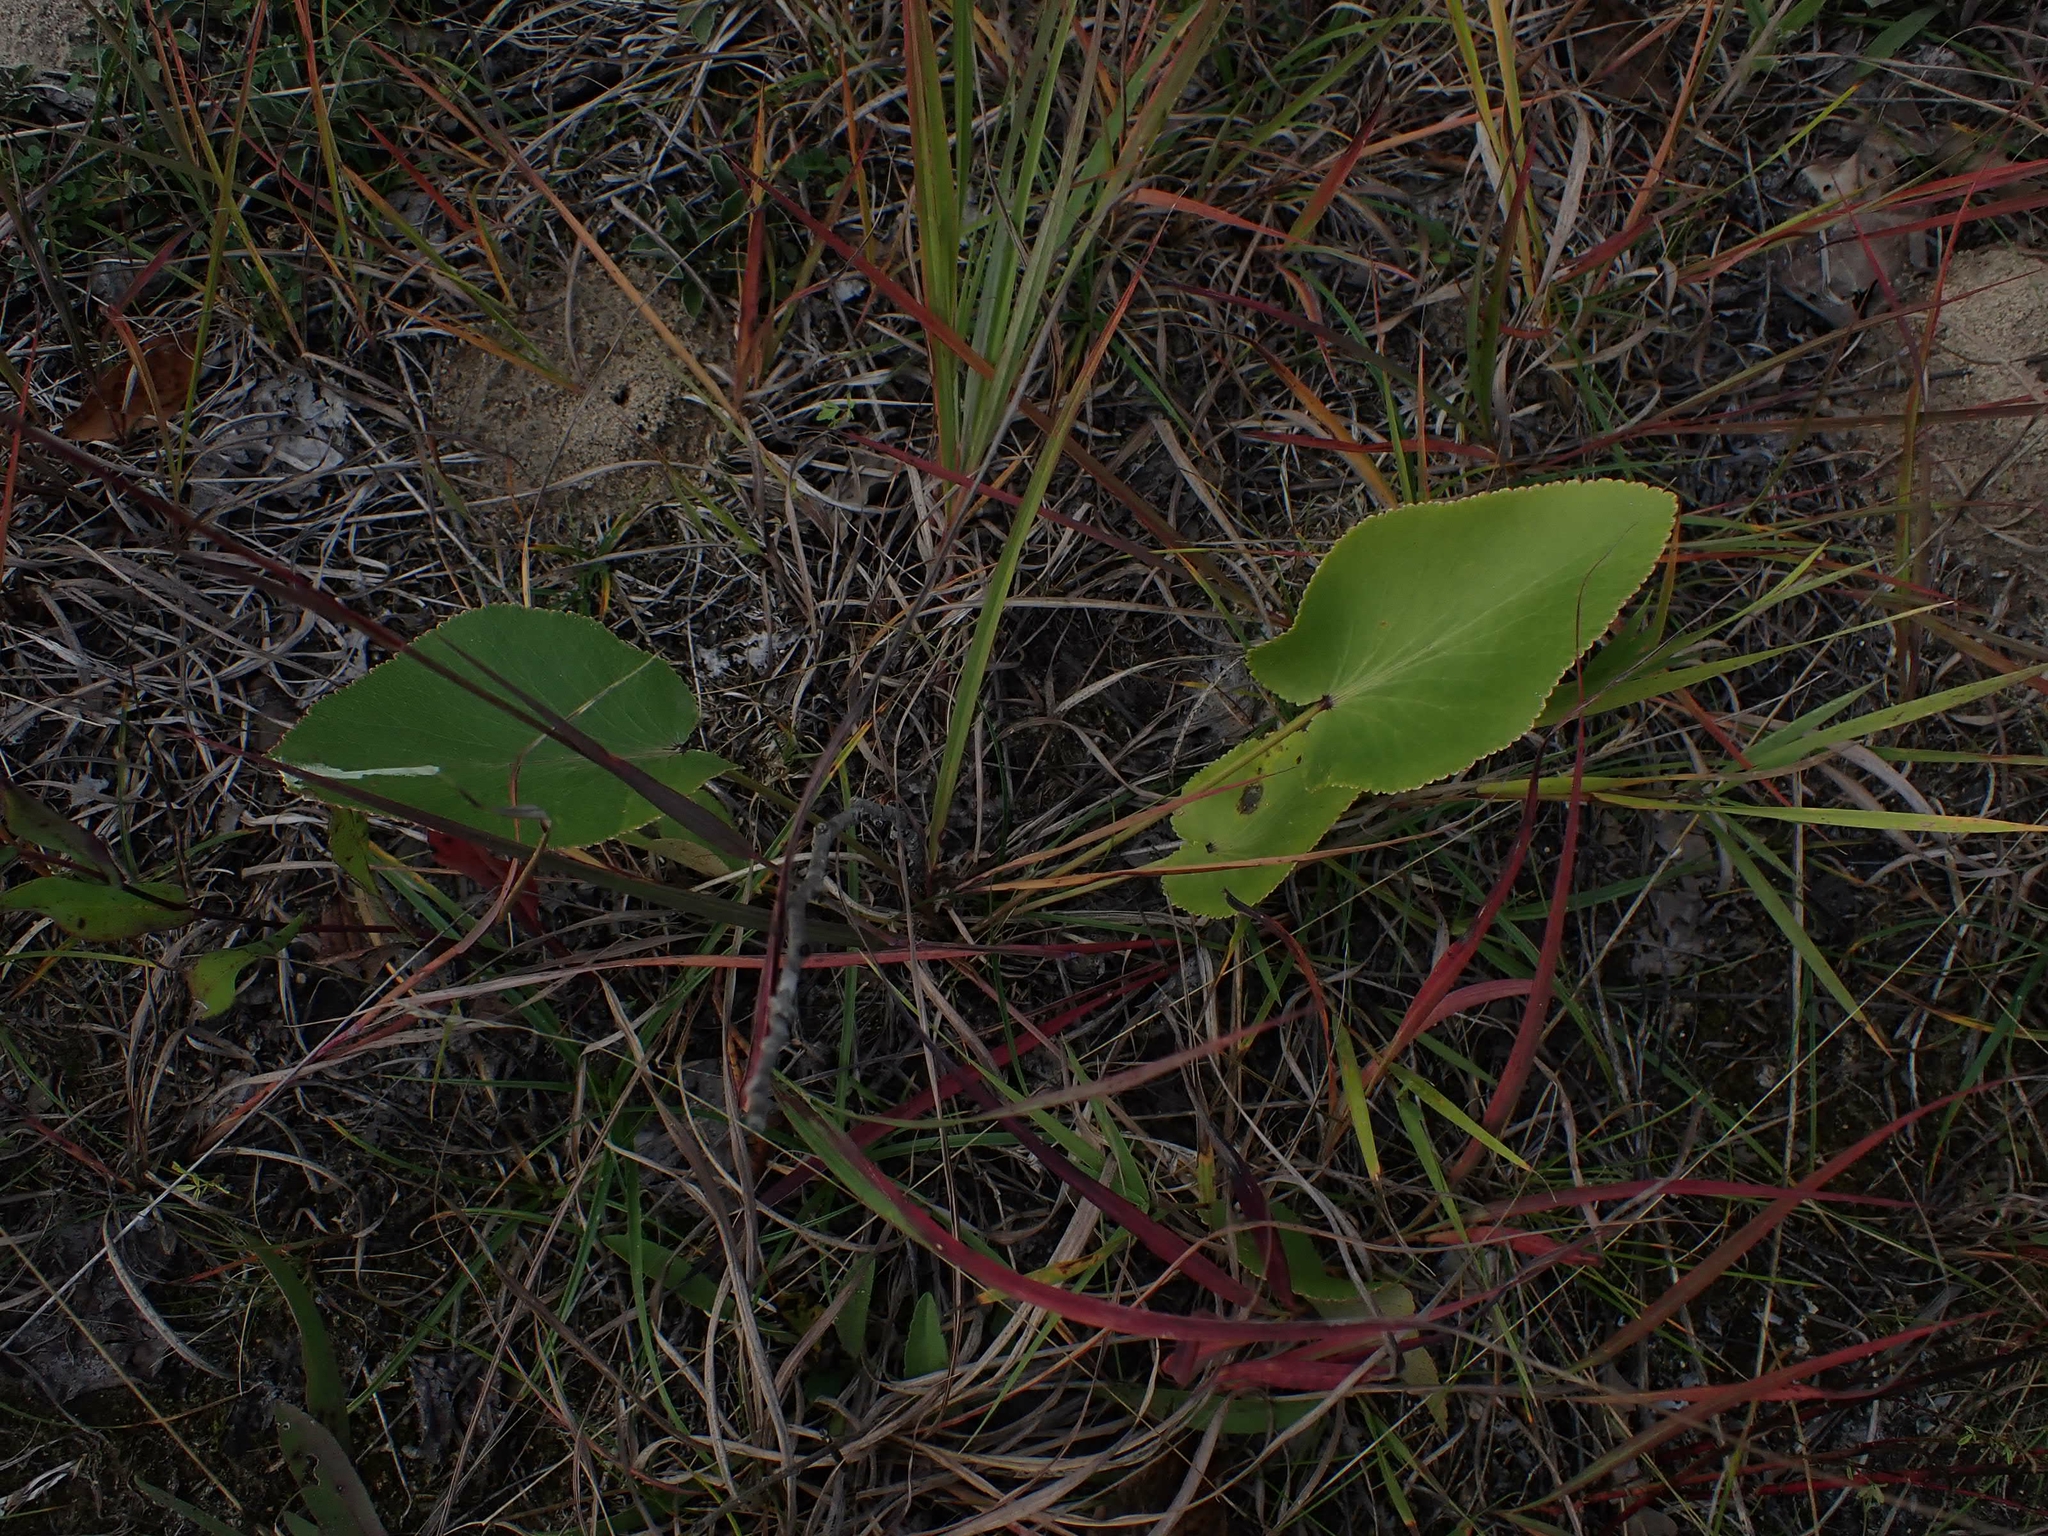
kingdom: Plantae
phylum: Tracheophyta
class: Magnoliopsida
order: Apiales
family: Apiaceae
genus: Zizia
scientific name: Zizia aptera
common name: Heart-leaved alexanders
